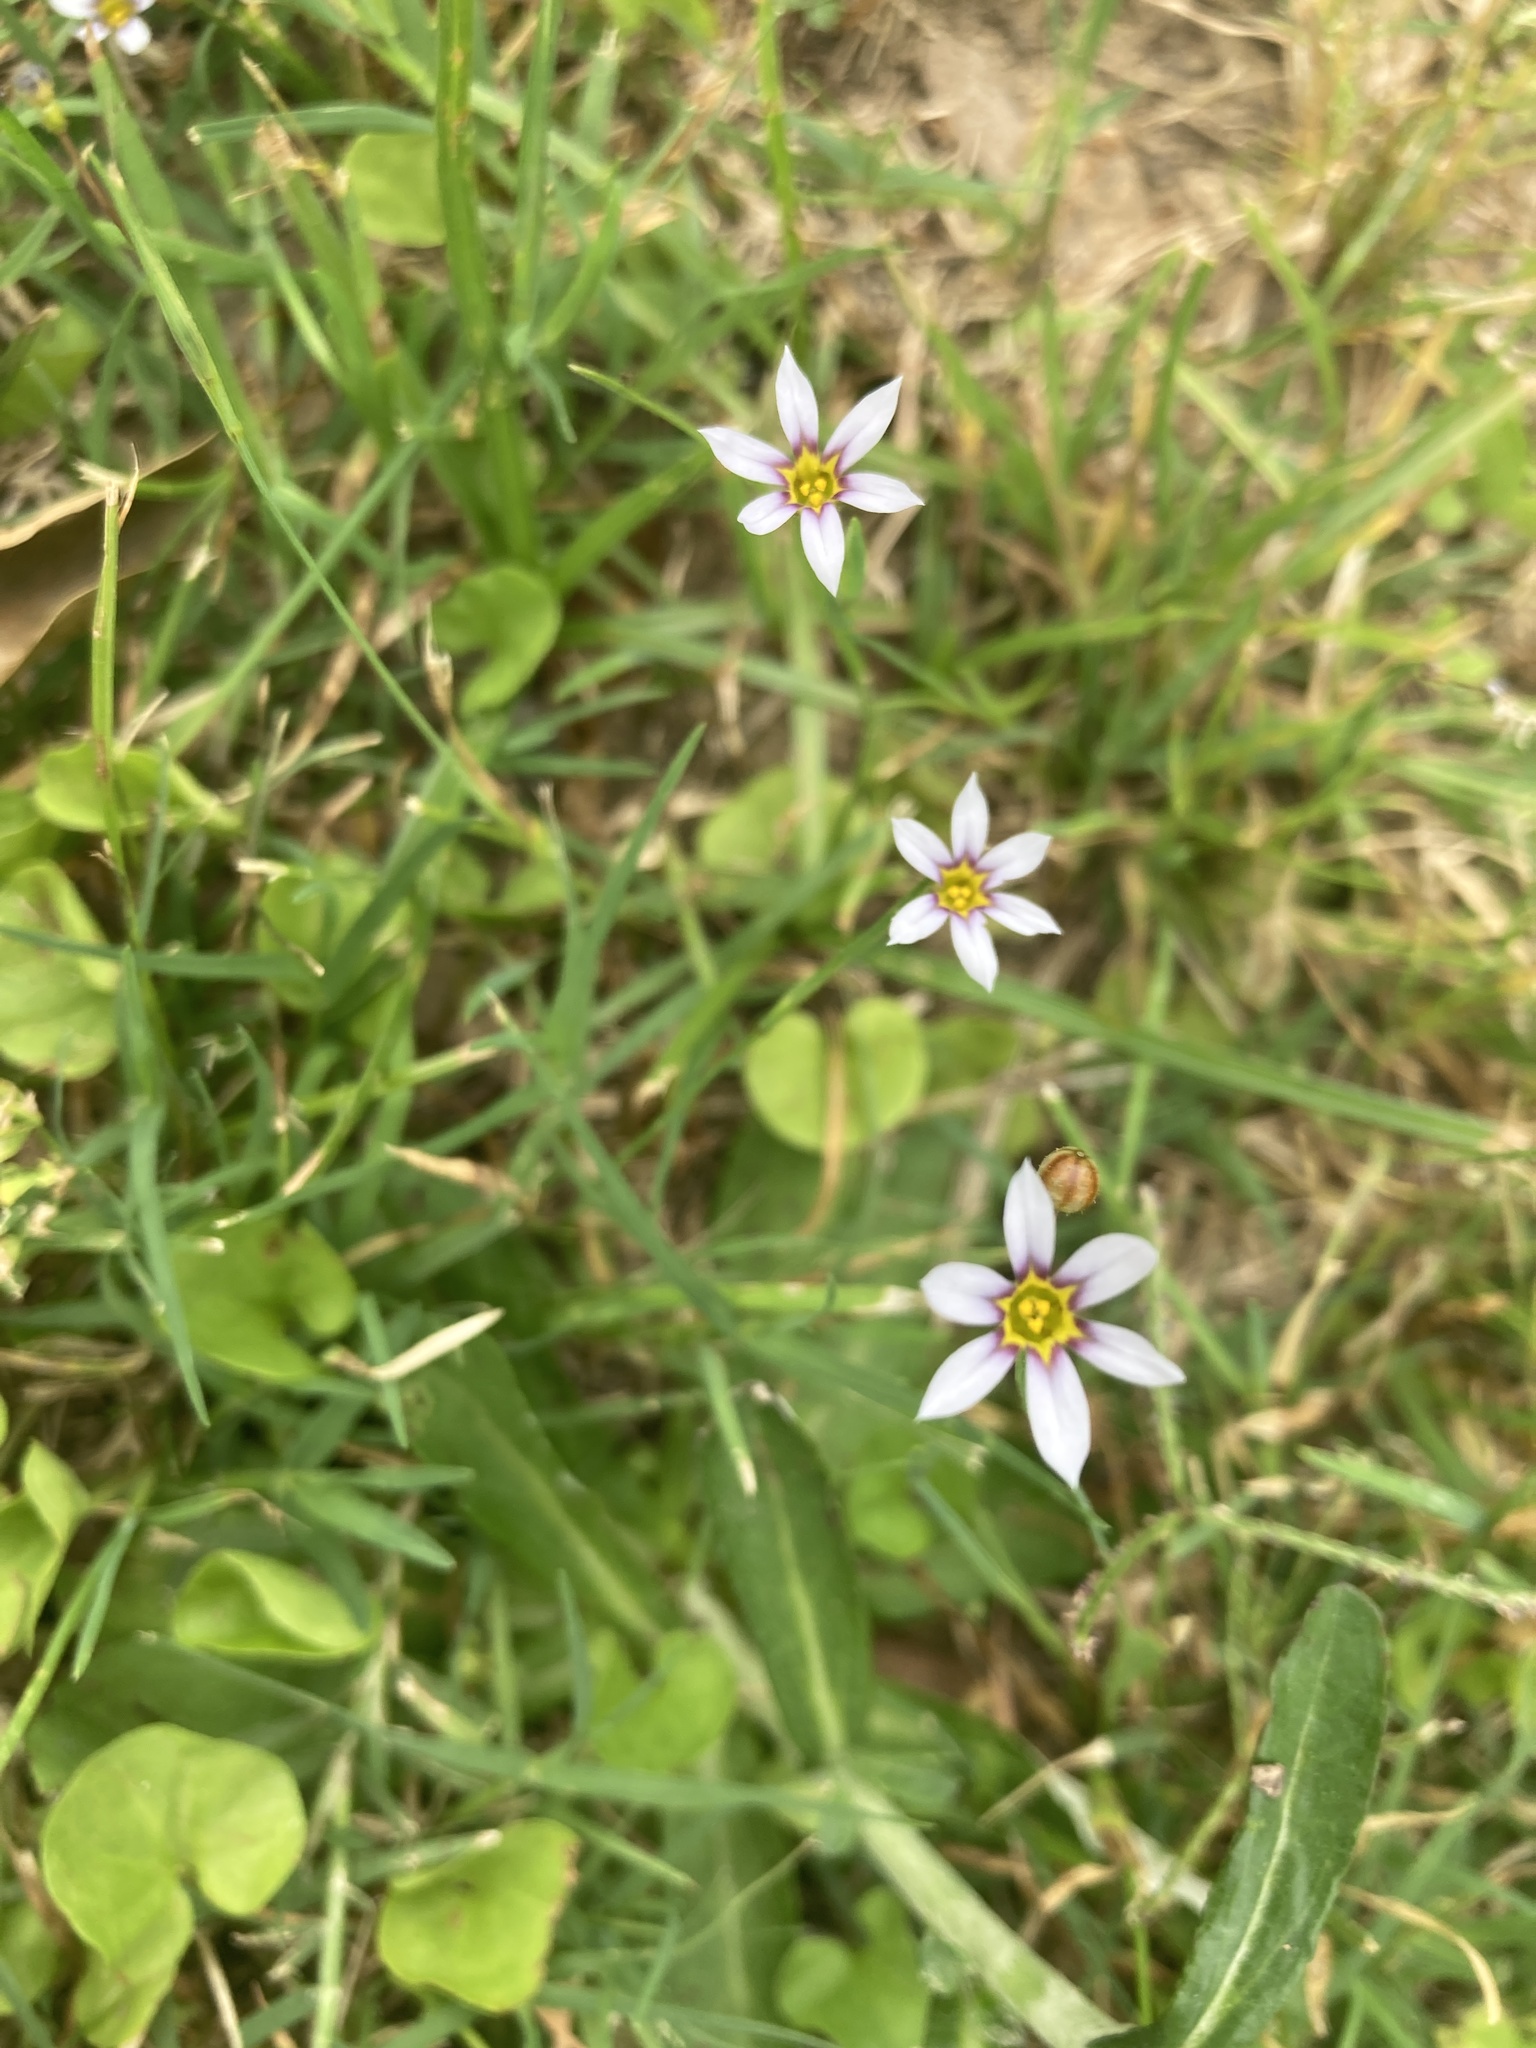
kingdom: Plantae
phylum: Tracheophyta
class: Liliopsida
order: Asparagales
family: Iridaceae
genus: Sisyrinchium
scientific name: Sisyrinchium micranthum
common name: Bermuda pigroot
